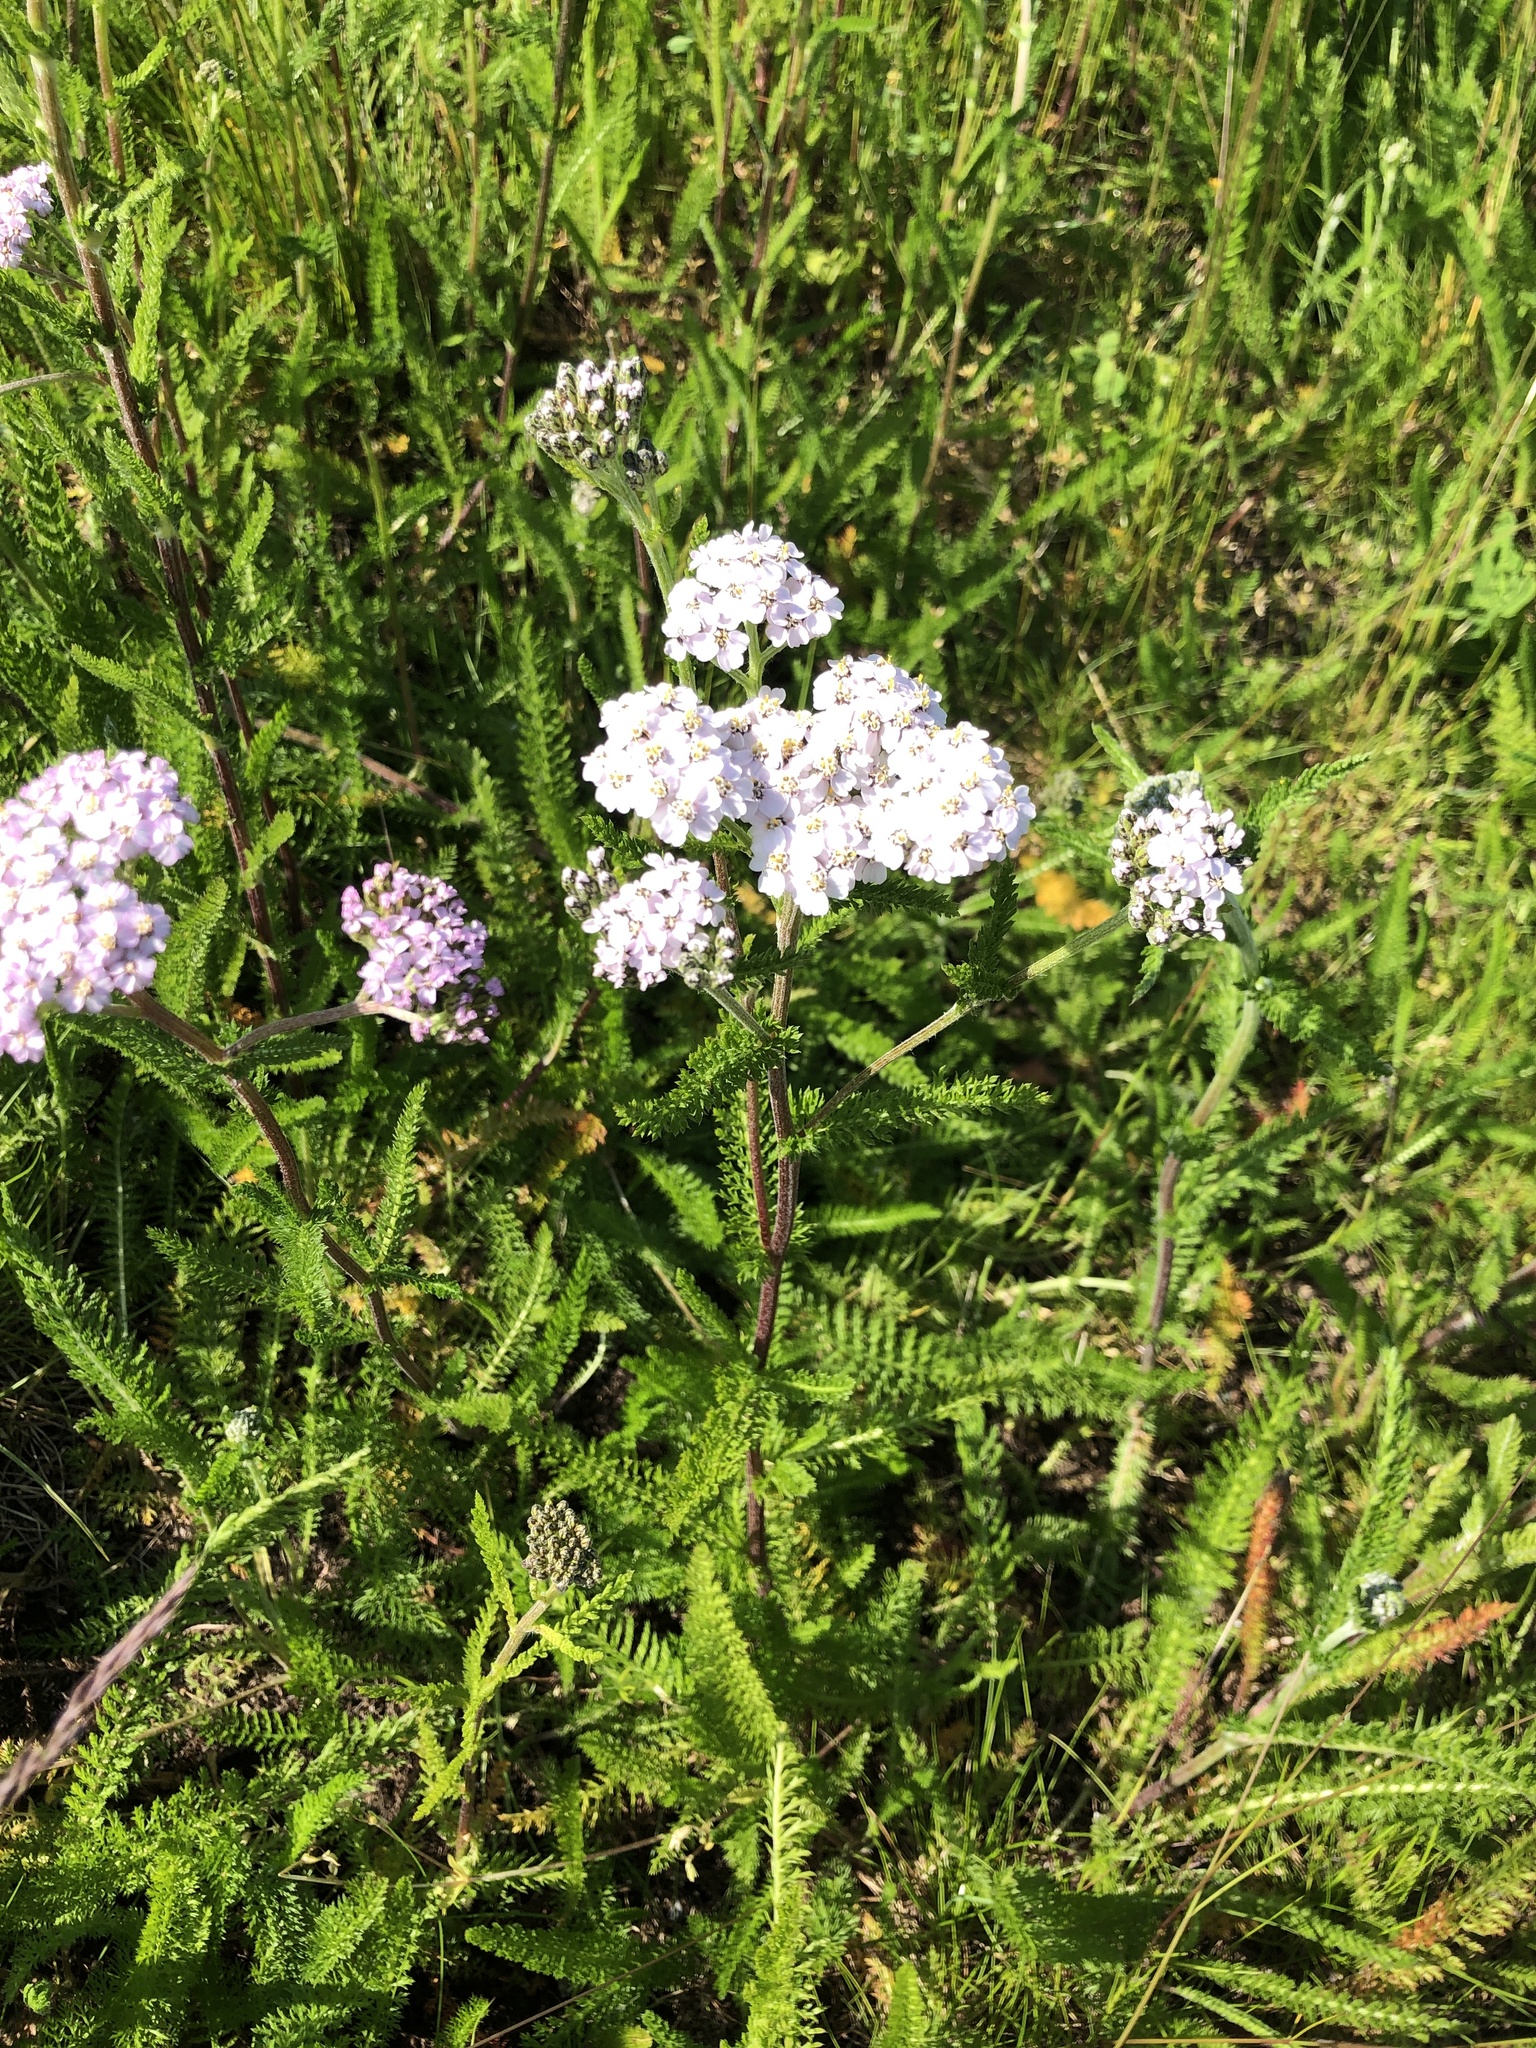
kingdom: Plantae
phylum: Tracheophyta
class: Magnoliopsida
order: Asterales
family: Asteraceae
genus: Achillea
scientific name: Achillea millefolium
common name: Yarrow
